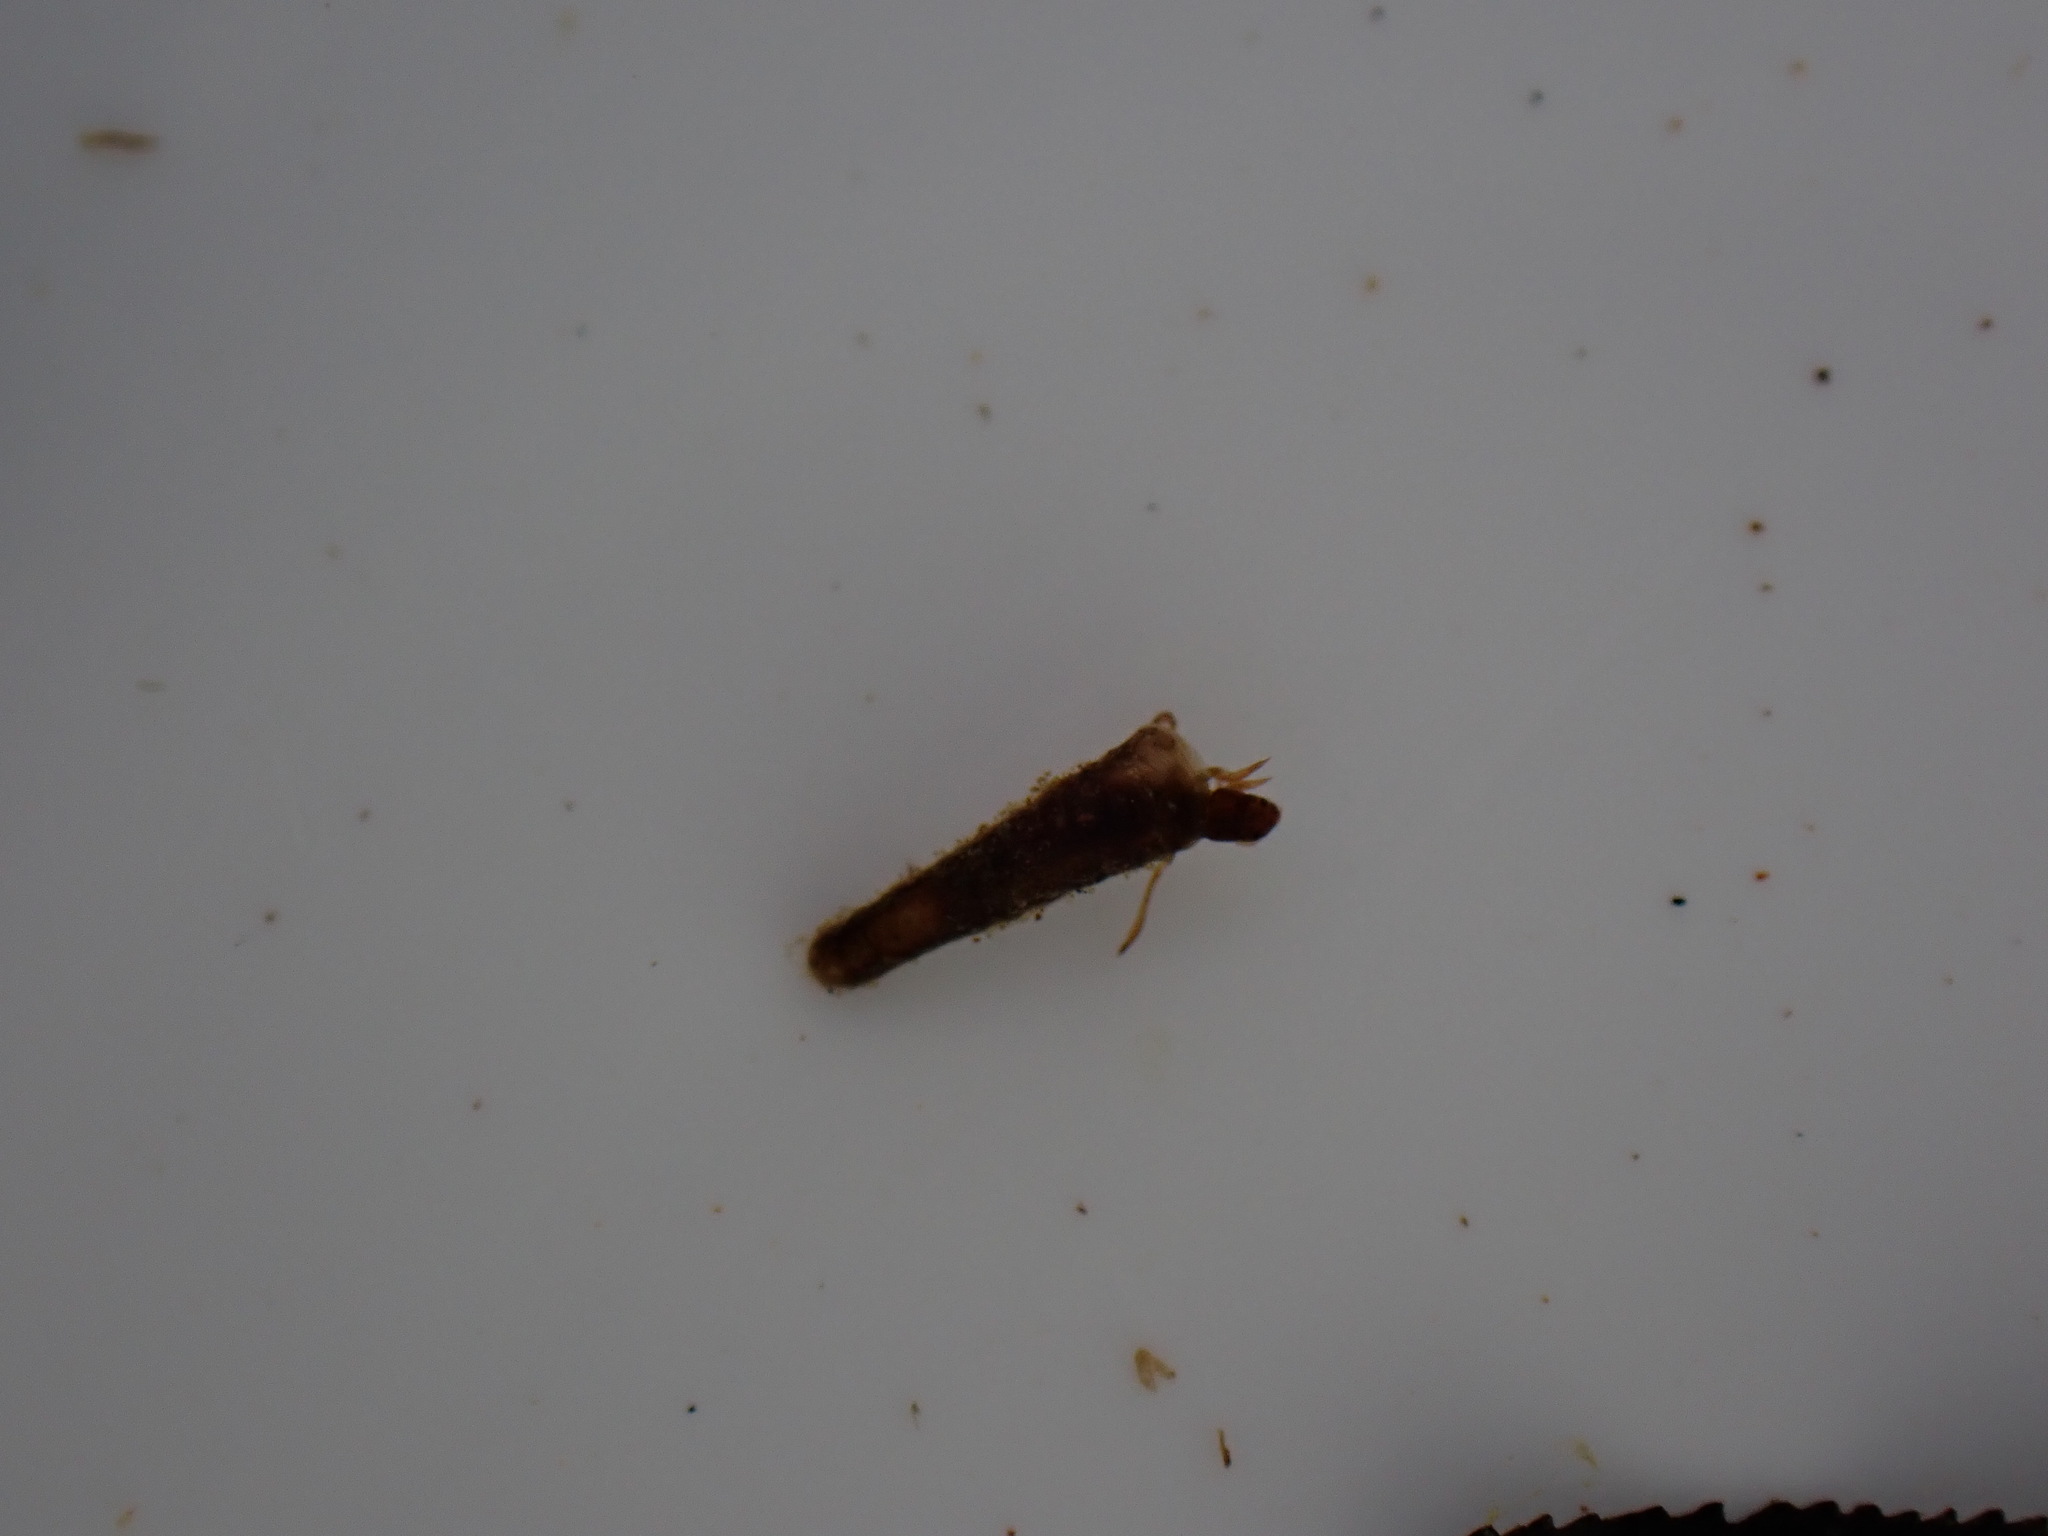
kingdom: Animalia
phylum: Arthropoda
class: Insecta
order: Trichoptera
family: Conoesucidae
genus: Beraeoptera
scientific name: Beraeoptera roria
